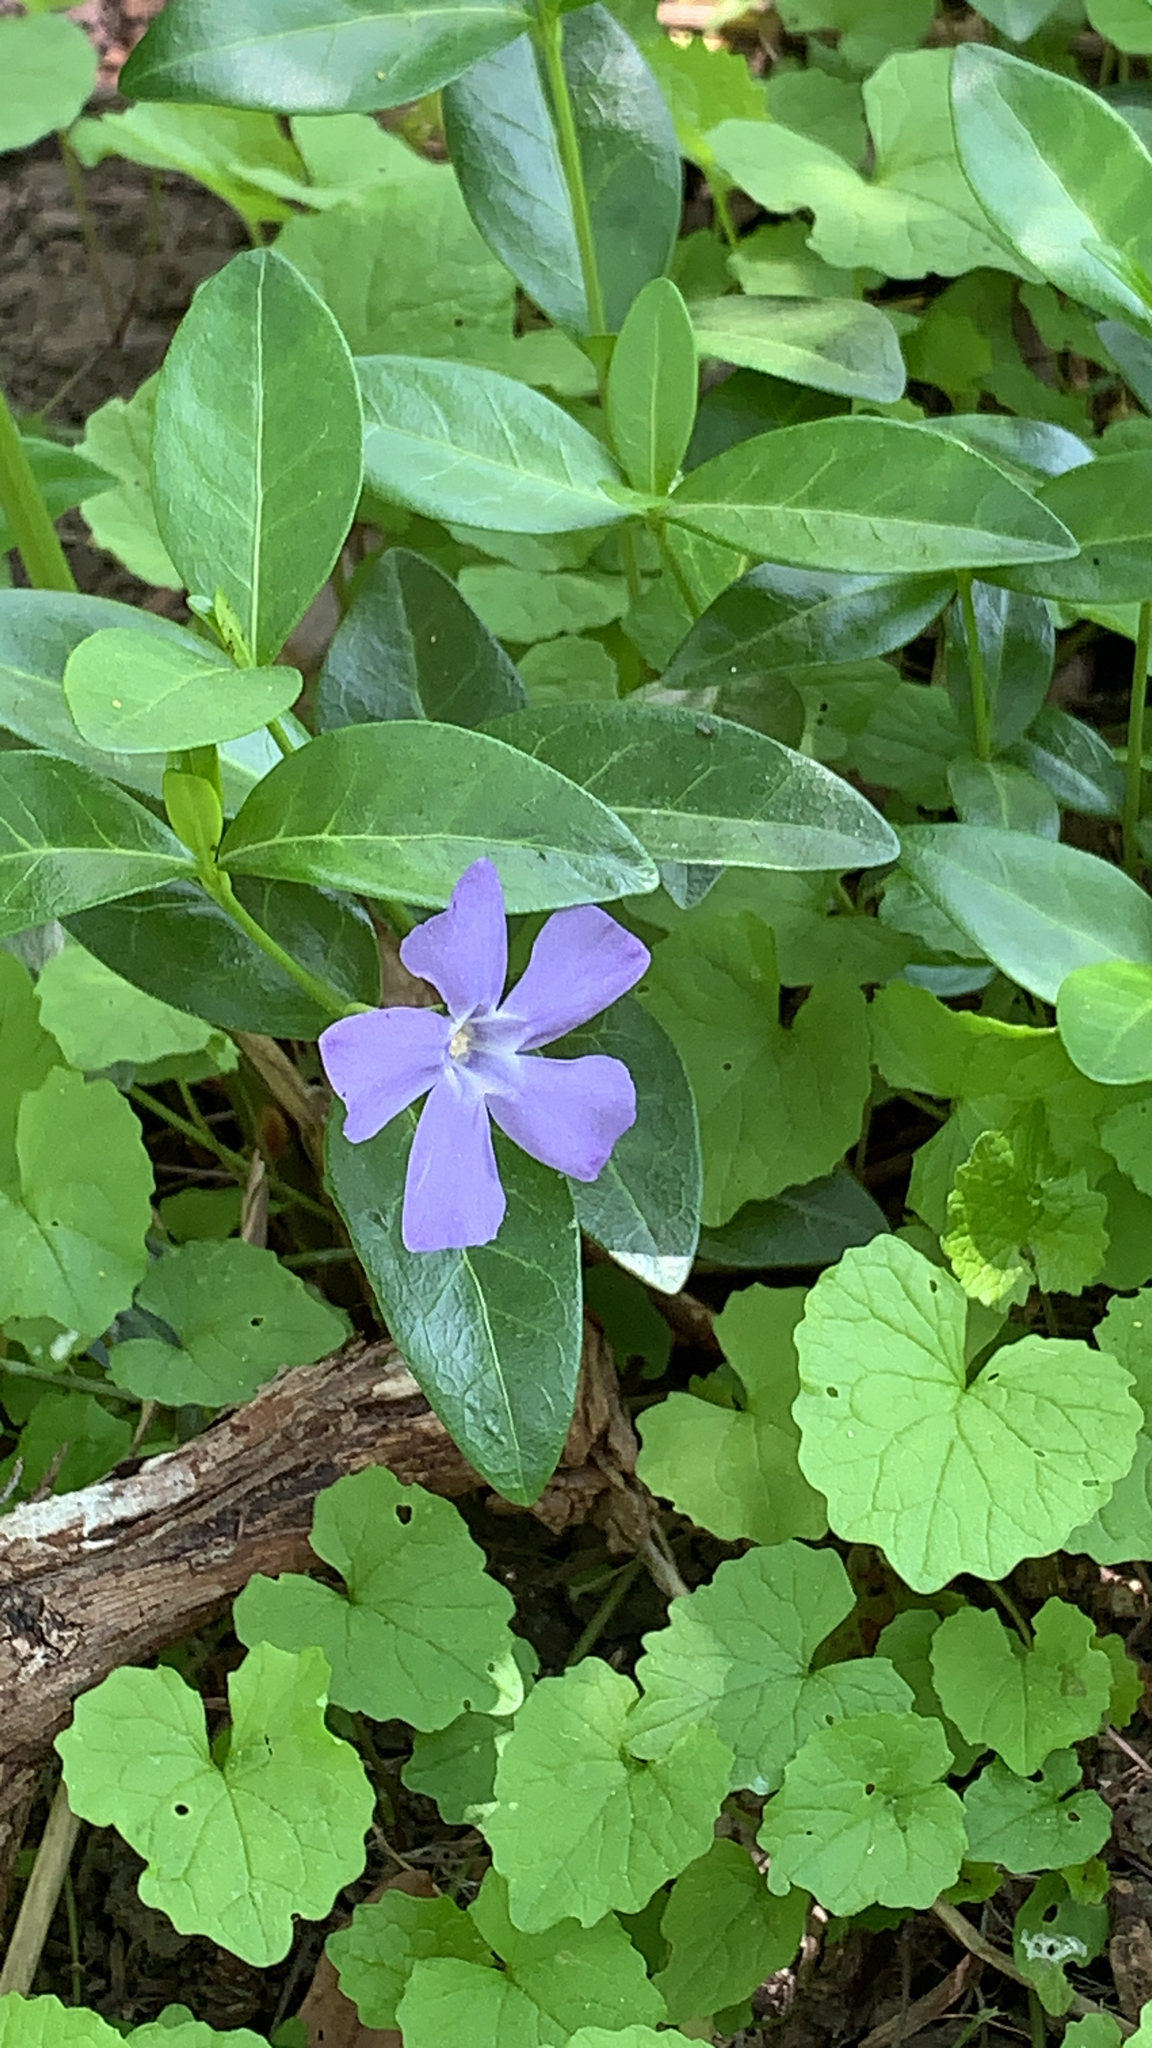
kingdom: Plantae
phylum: Tracheophyta
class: Magnoliopsida
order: Gentianales
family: Apocynaceae
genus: Vinca
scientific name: Vinca minor
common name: Lesser periwinkle
